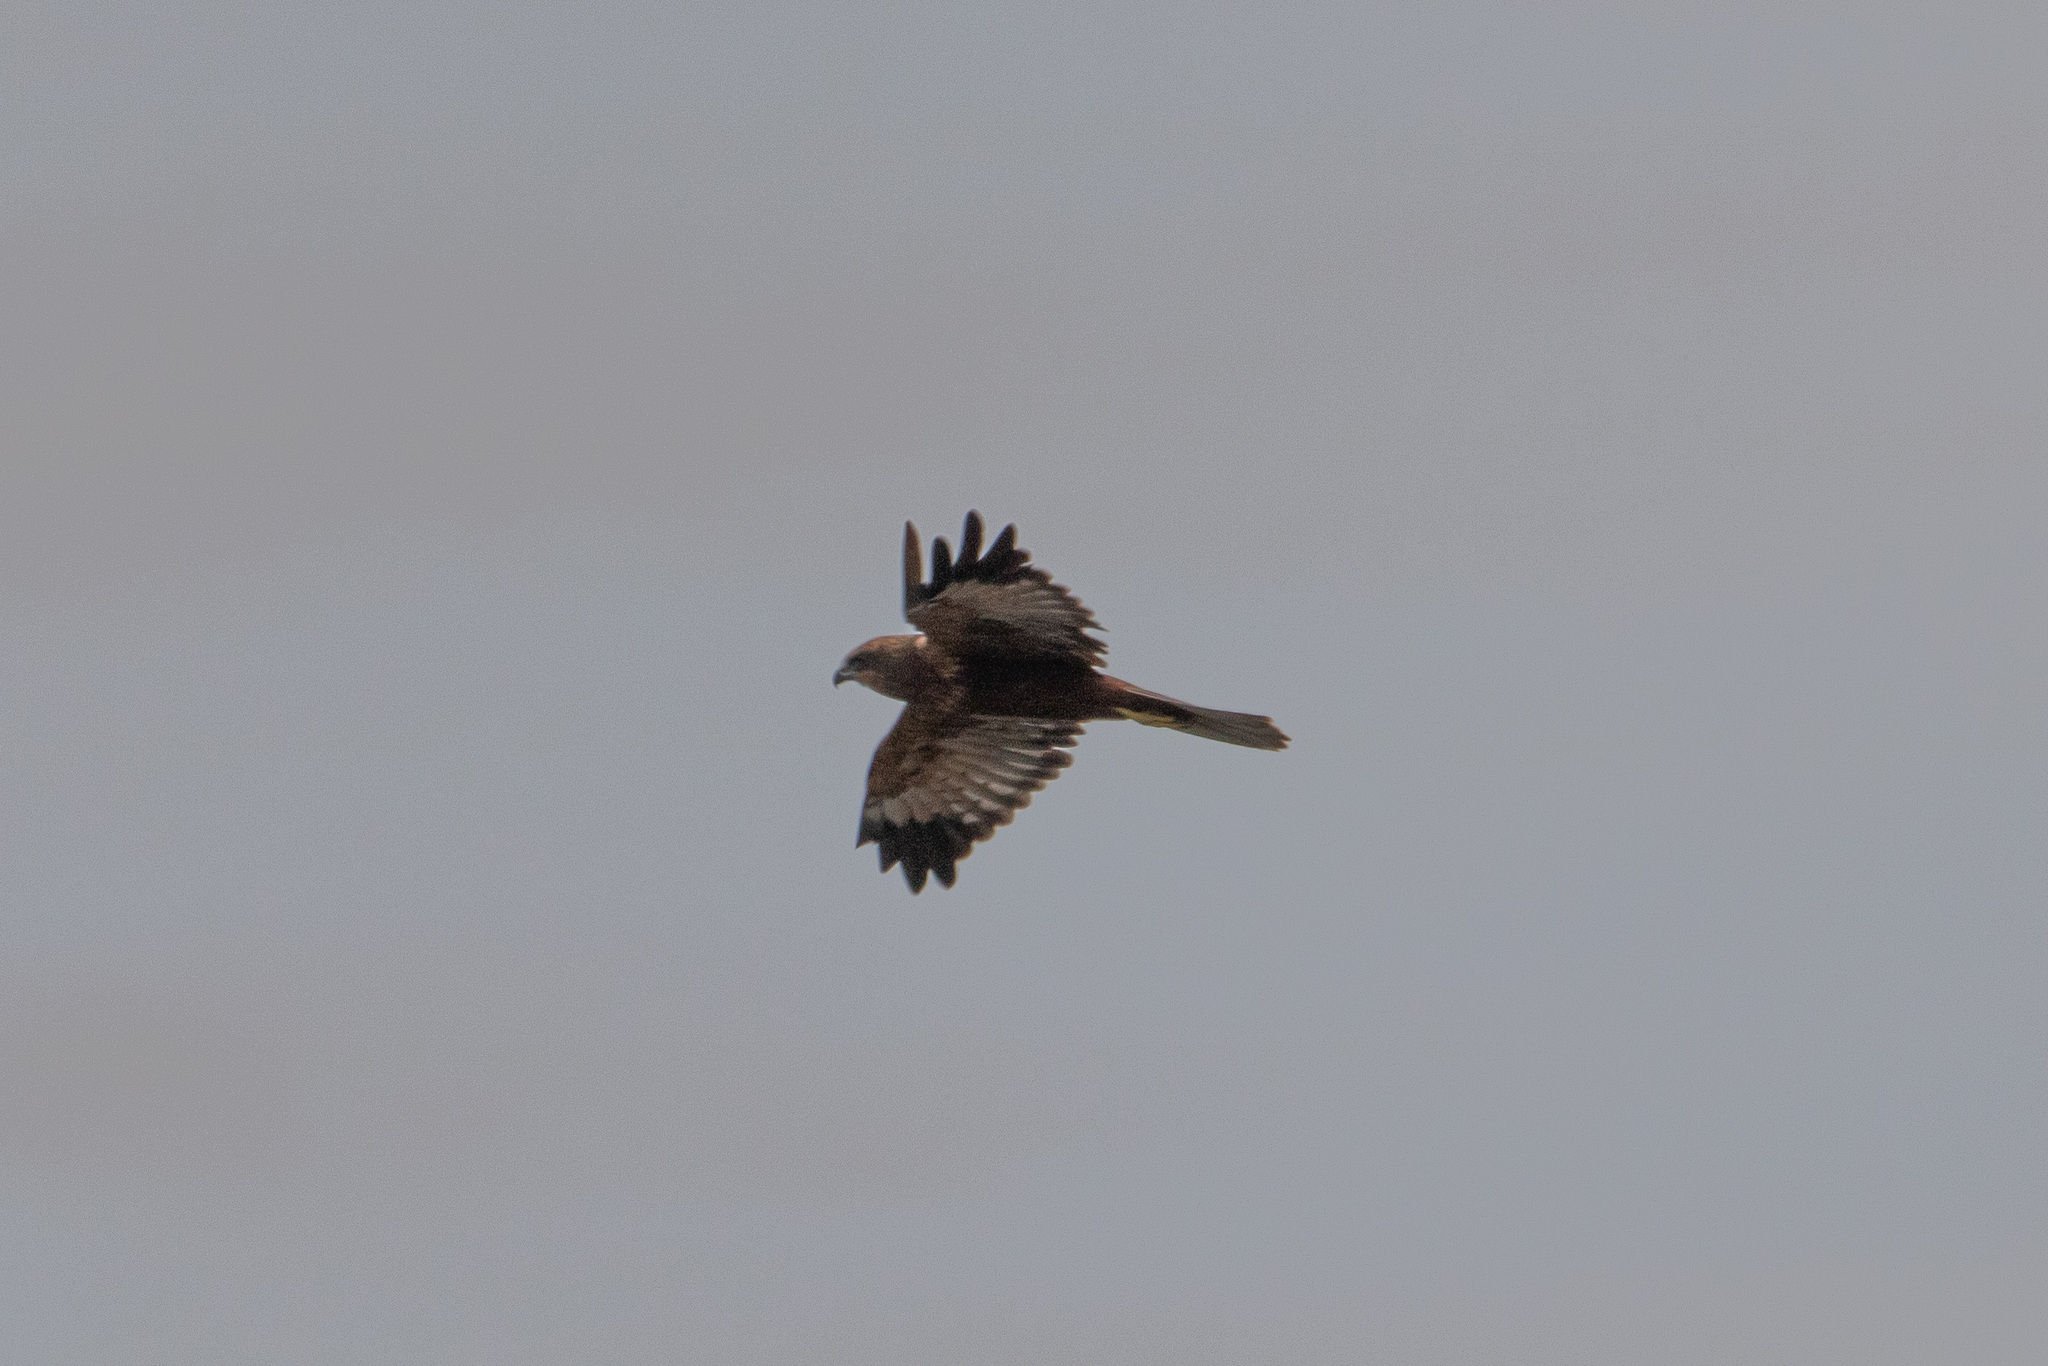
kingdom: Animalia
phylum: Chordata
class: Aves
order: Accipitriformes
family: Accipitridae
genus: Circus
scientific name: Circus aeruginosus
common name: Western marsh harrier
